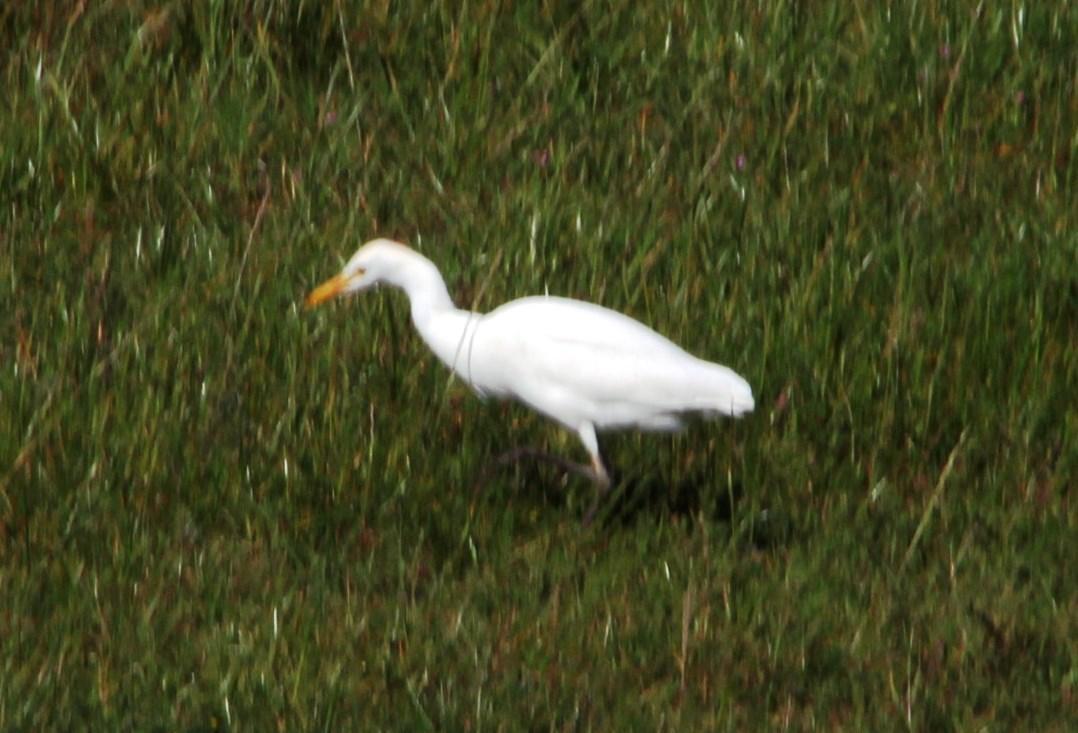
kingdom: Animalia
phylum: Chordata
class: Aves
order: Pelecaniformes
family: Ardeidae
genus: Bubulcus
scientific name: Bubulcus ibis
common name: Cattle egret
